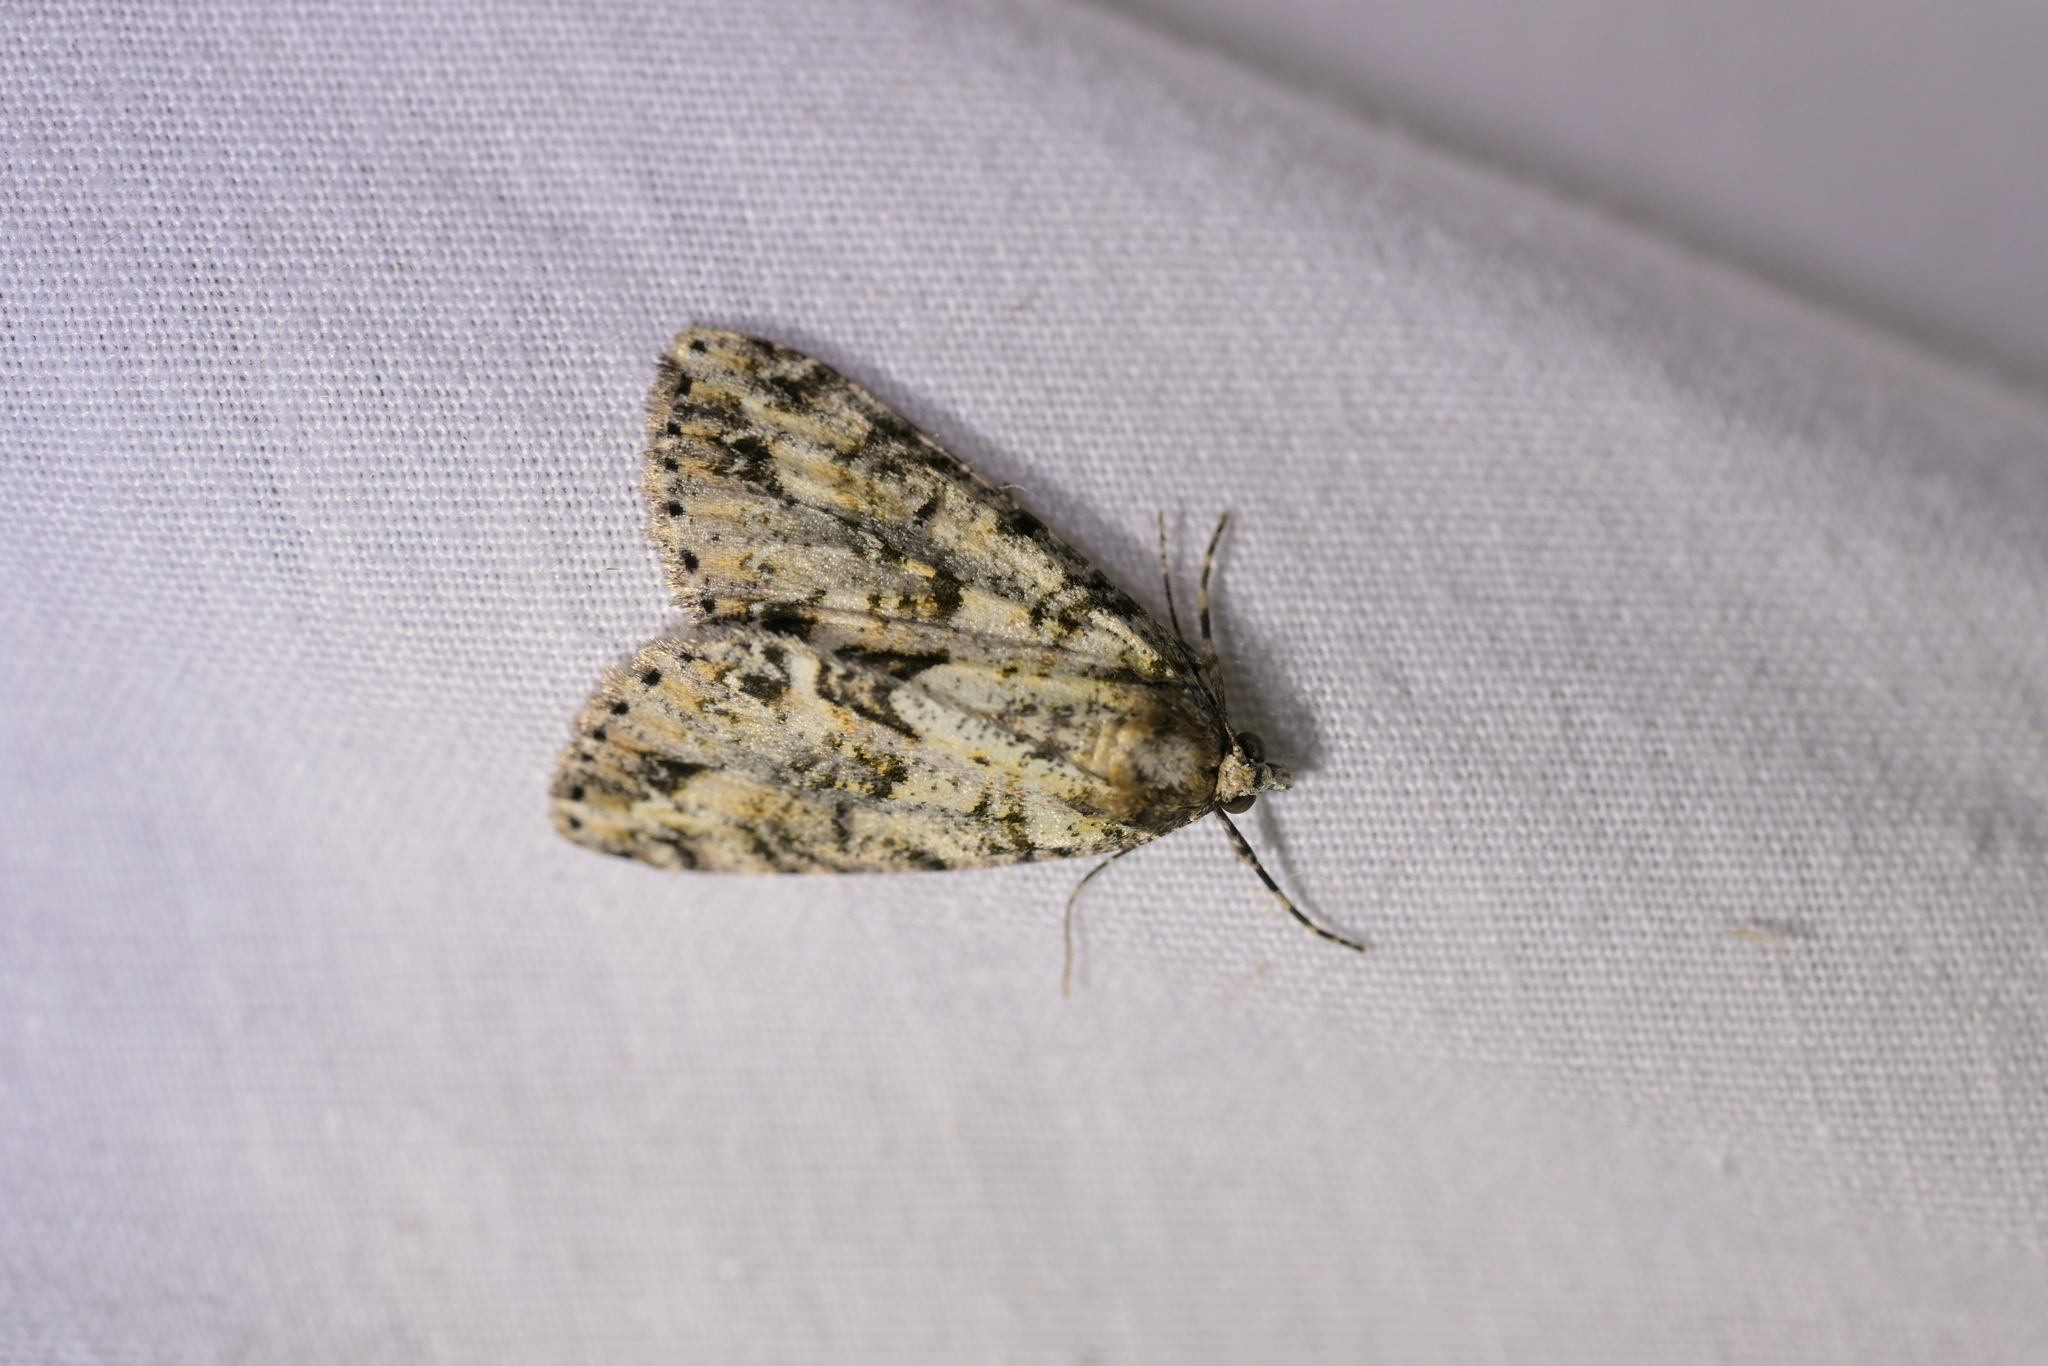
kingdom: Animalia
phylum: Arthropoda
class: Insecta
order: Lepidoptera
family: Geometridae
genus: Pseudocoremia
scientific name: Pseudocoremia suavis
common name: Common forest looper
